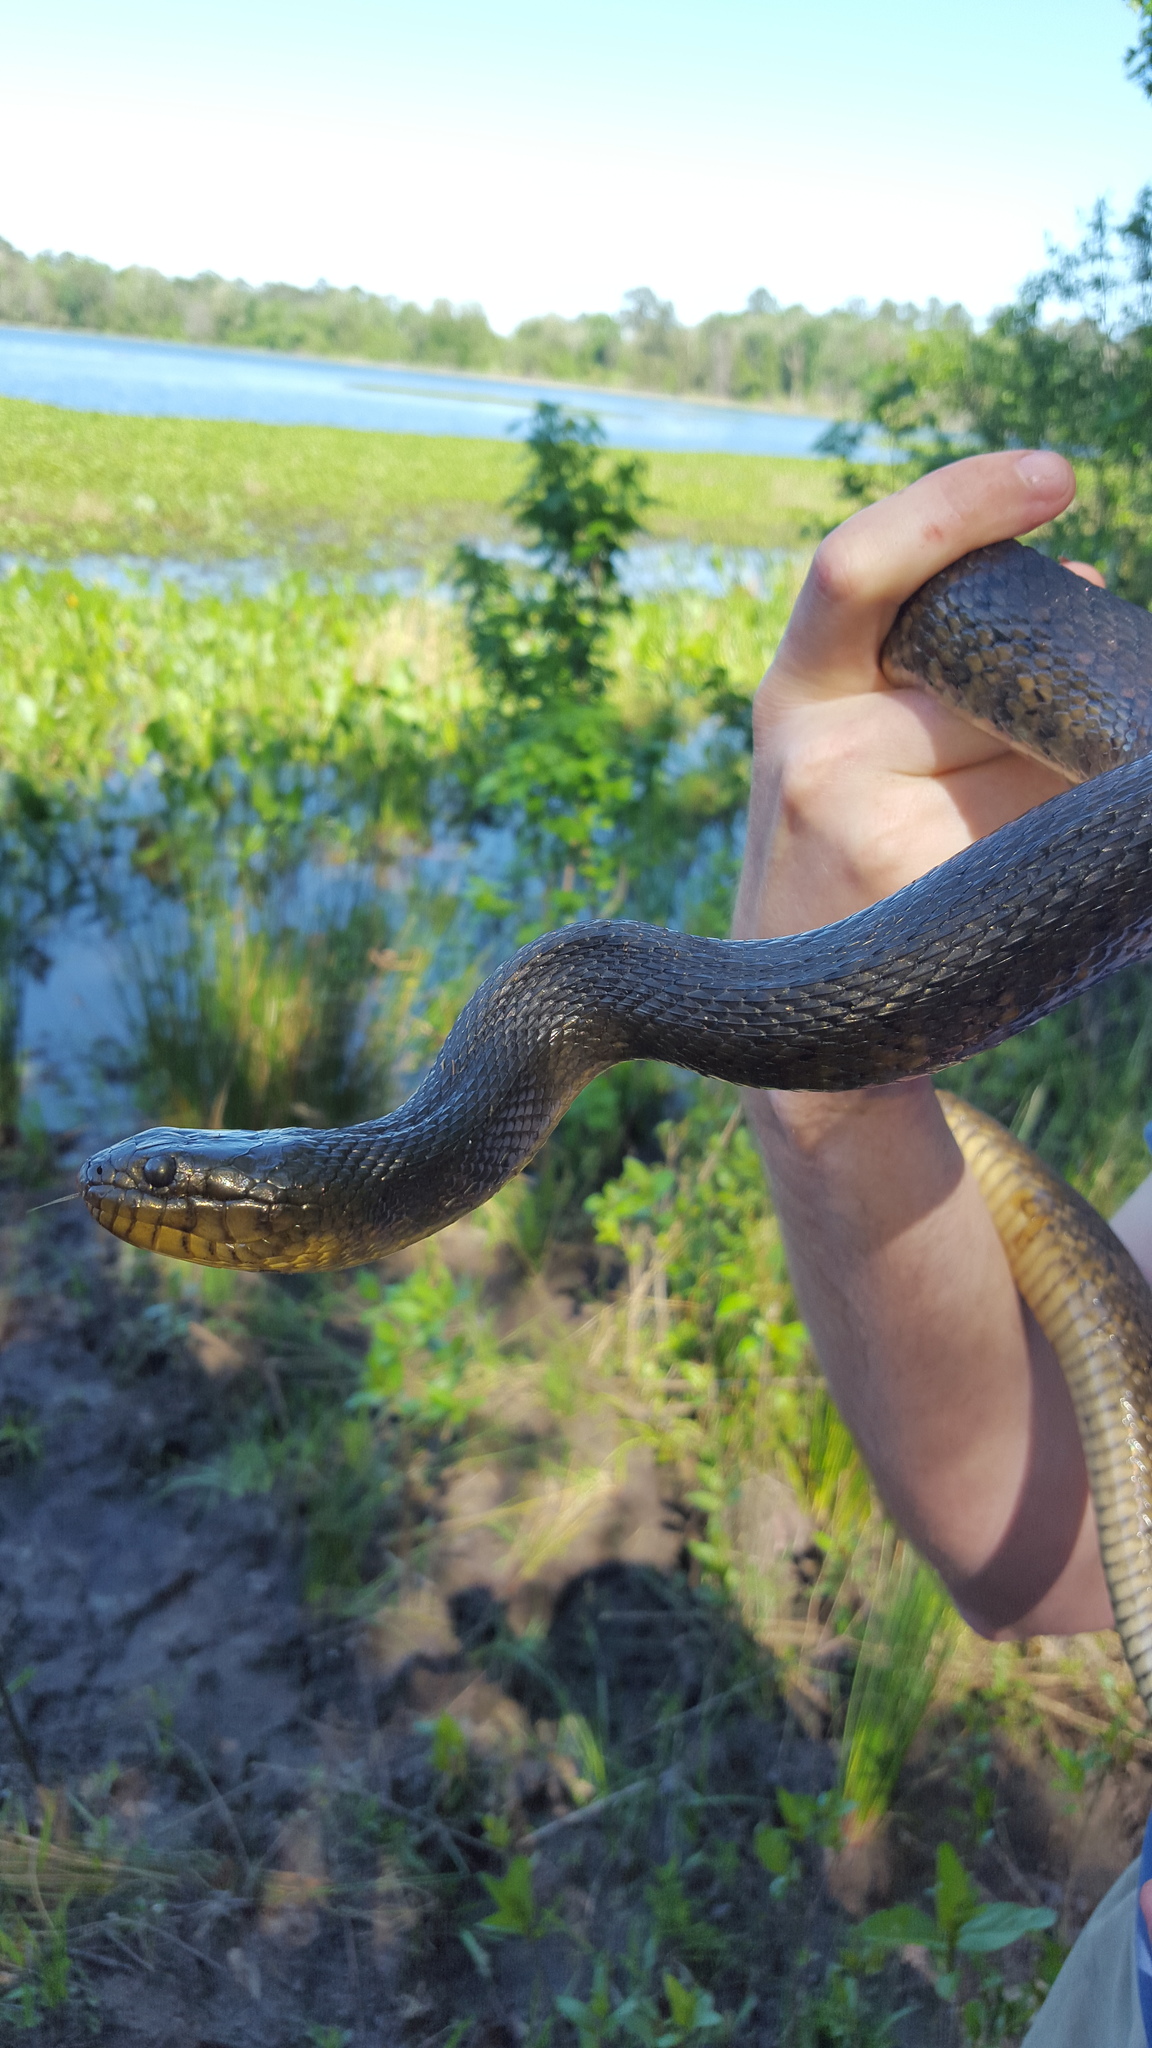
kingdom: Animalia
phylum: Chordata
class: Squamata
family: Colubridae
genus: Nerodia
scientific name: Nerodia floridana
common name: Florida green watersnake
